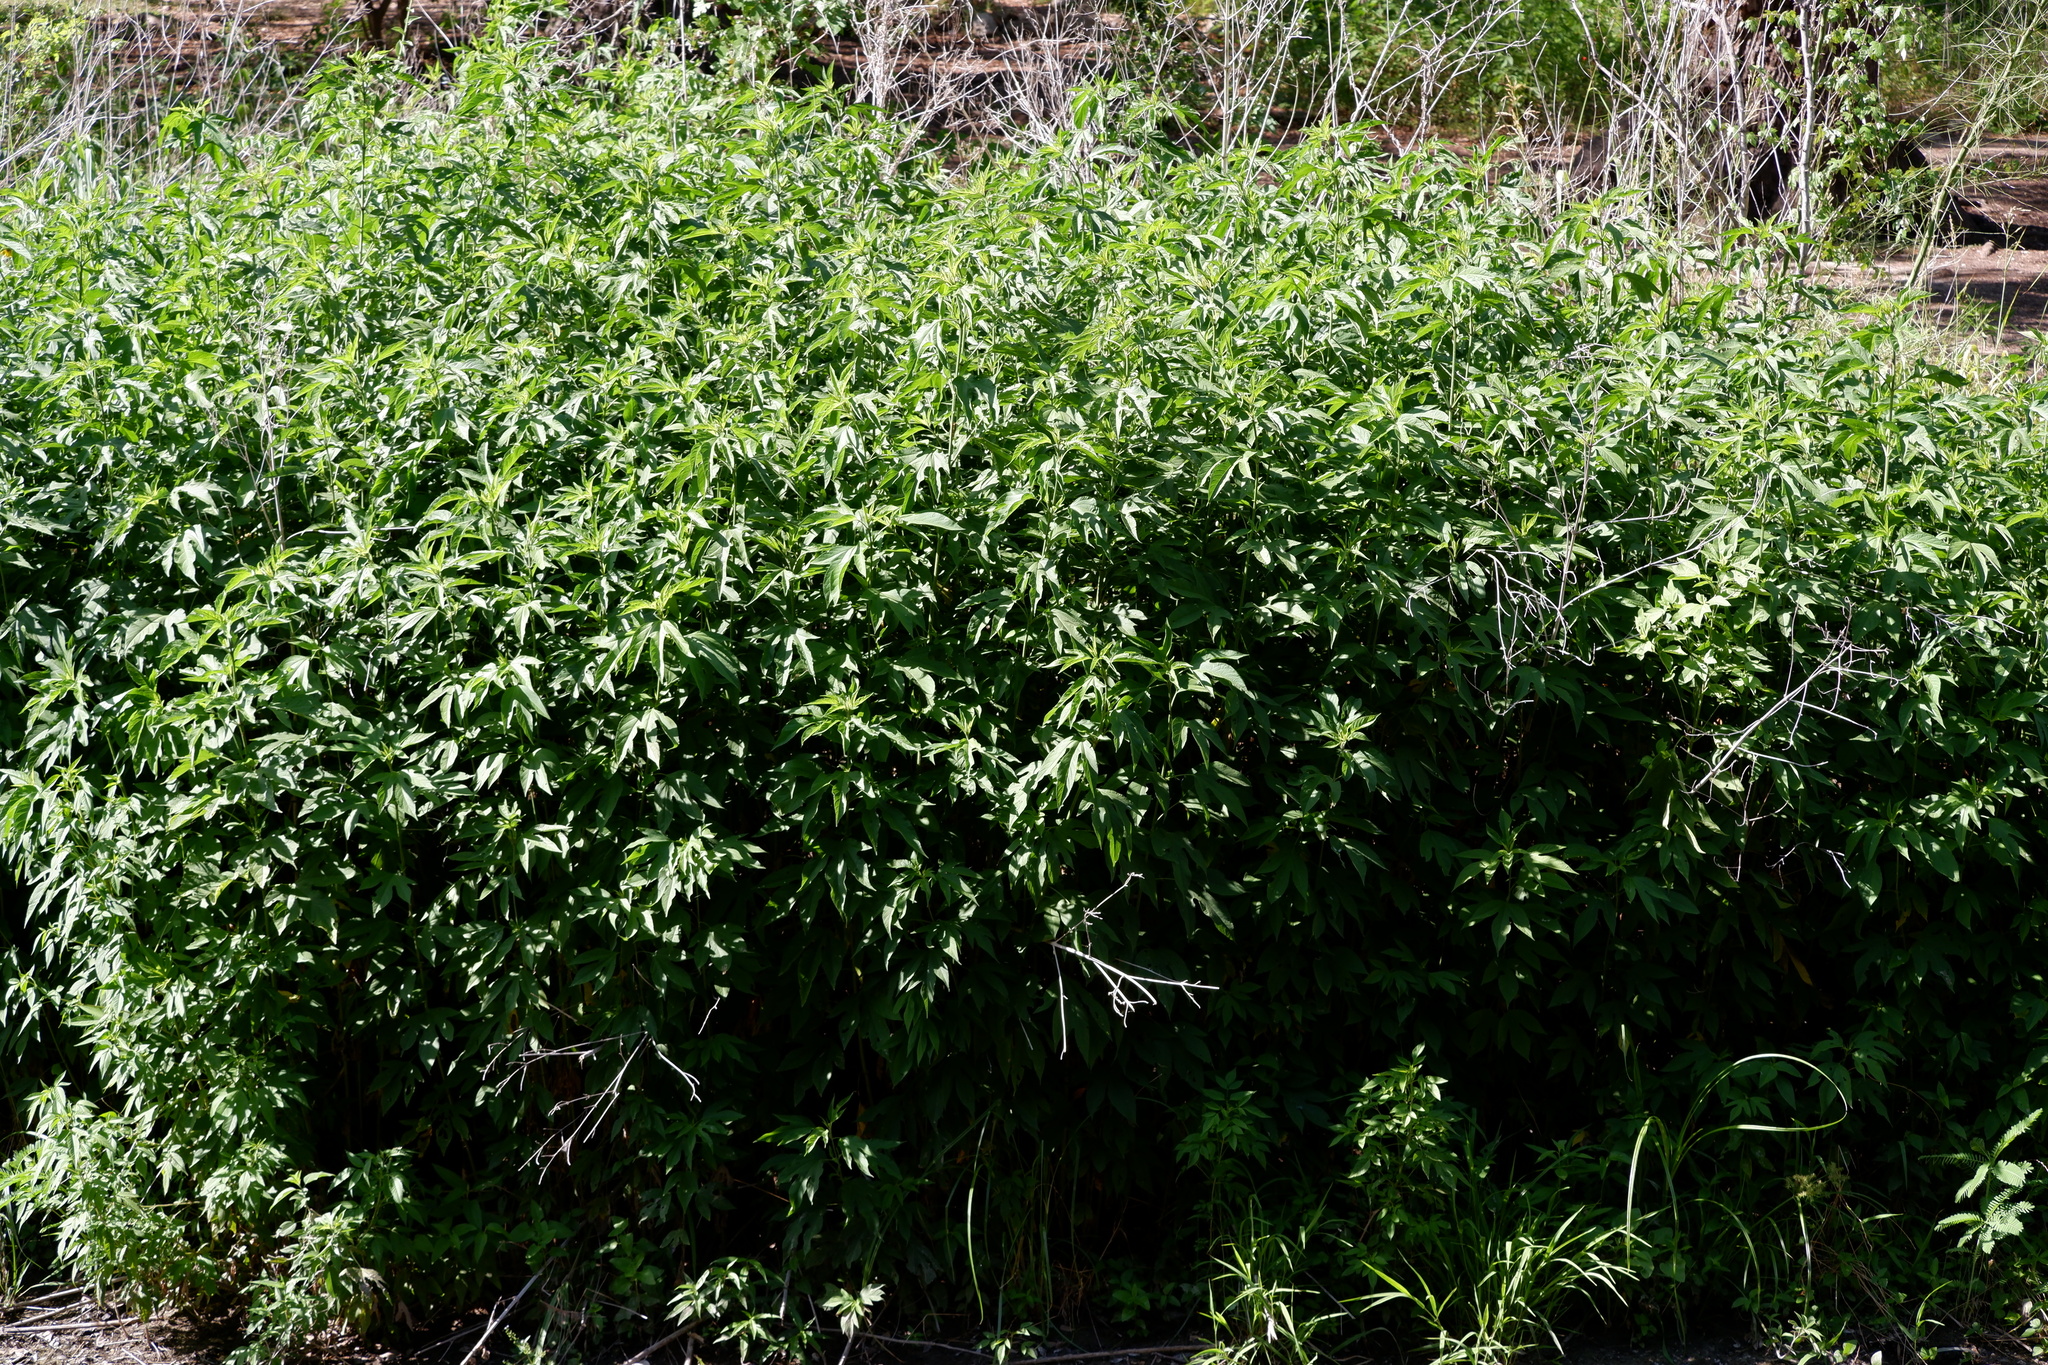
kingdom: Plantae
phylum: Tracheophyta
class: Magnoliopsida
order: Asterales
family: Asteraceae
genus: Ambrosia
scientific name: Ambrosia trifida
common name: Giant ragweed
